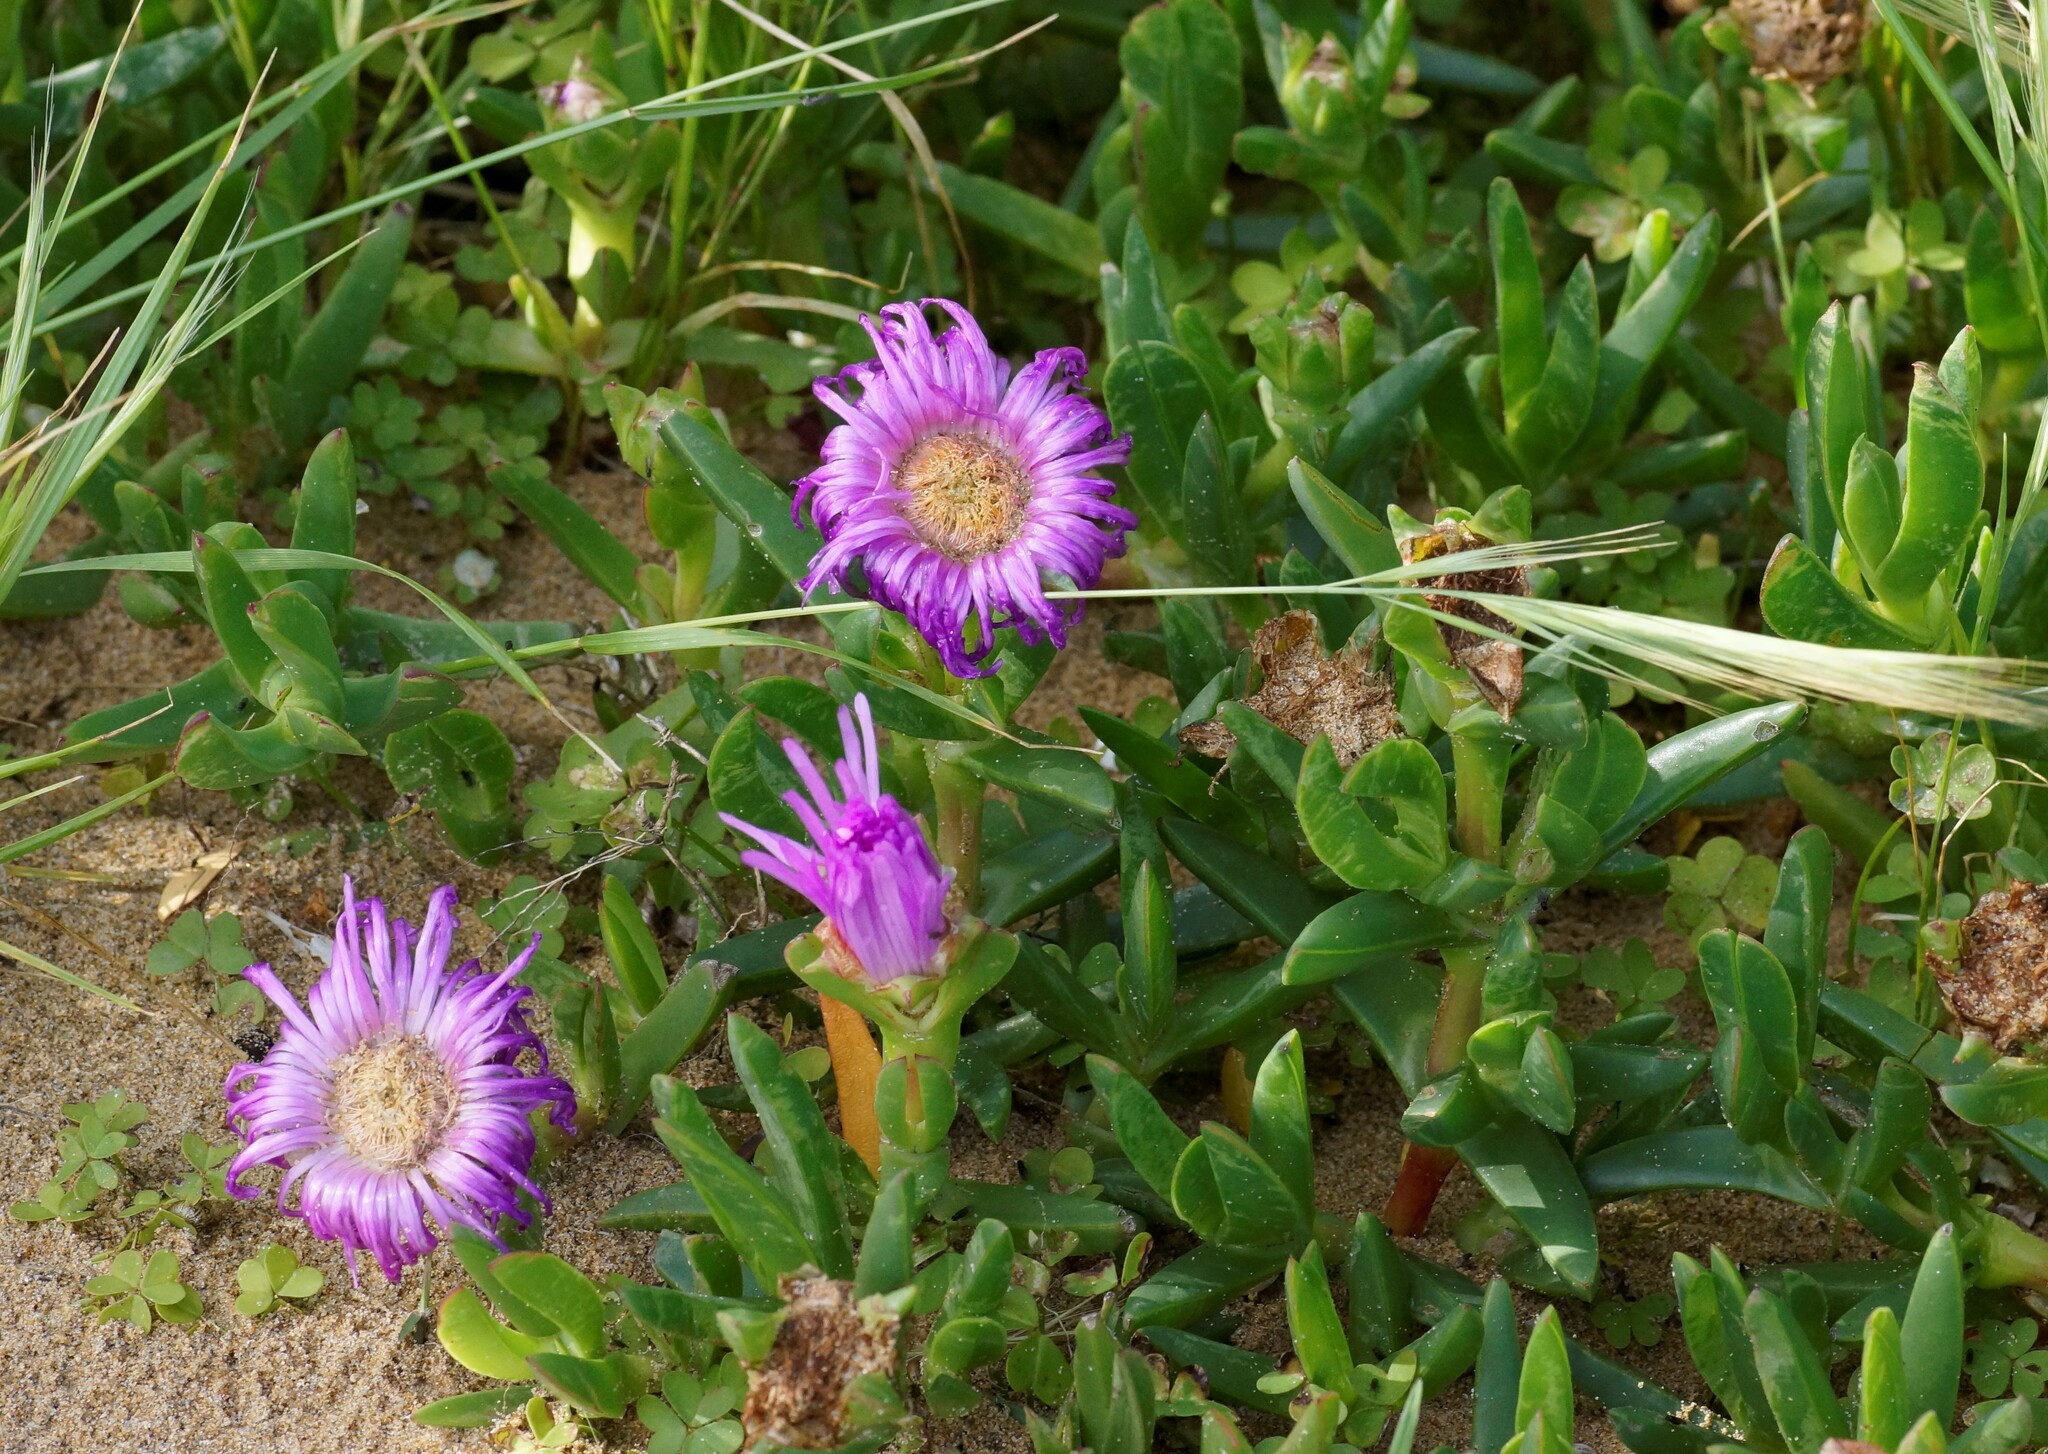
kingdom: Plantae
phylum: Tracheophyta
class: Magnoliopsida
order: Caryophyllales
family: Aizoaceae
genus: Carpobrotus
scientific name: Carpobrotus rossii
